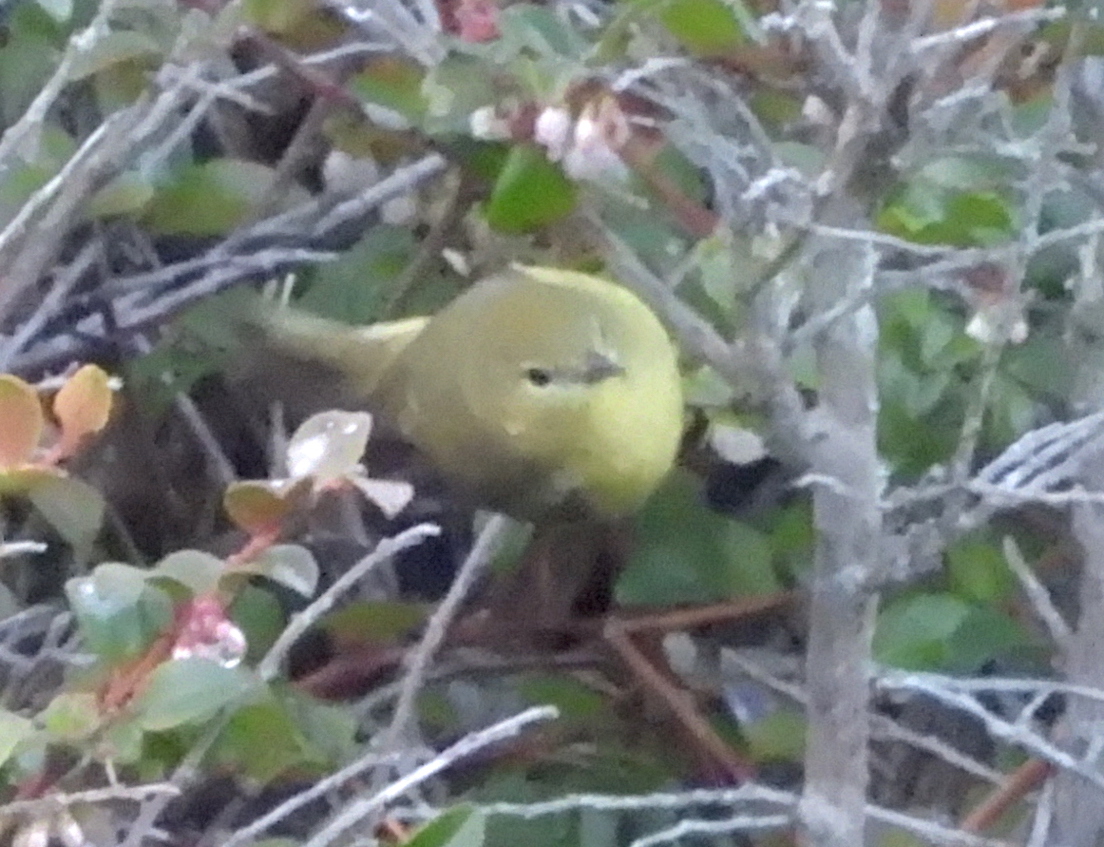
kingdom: Animalia
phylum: Chordata
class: Aves
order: Passeriformes
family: Parulidae
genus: Leiothlypis
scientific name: Leiothlypis celata
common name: Orange-crowned warbler
